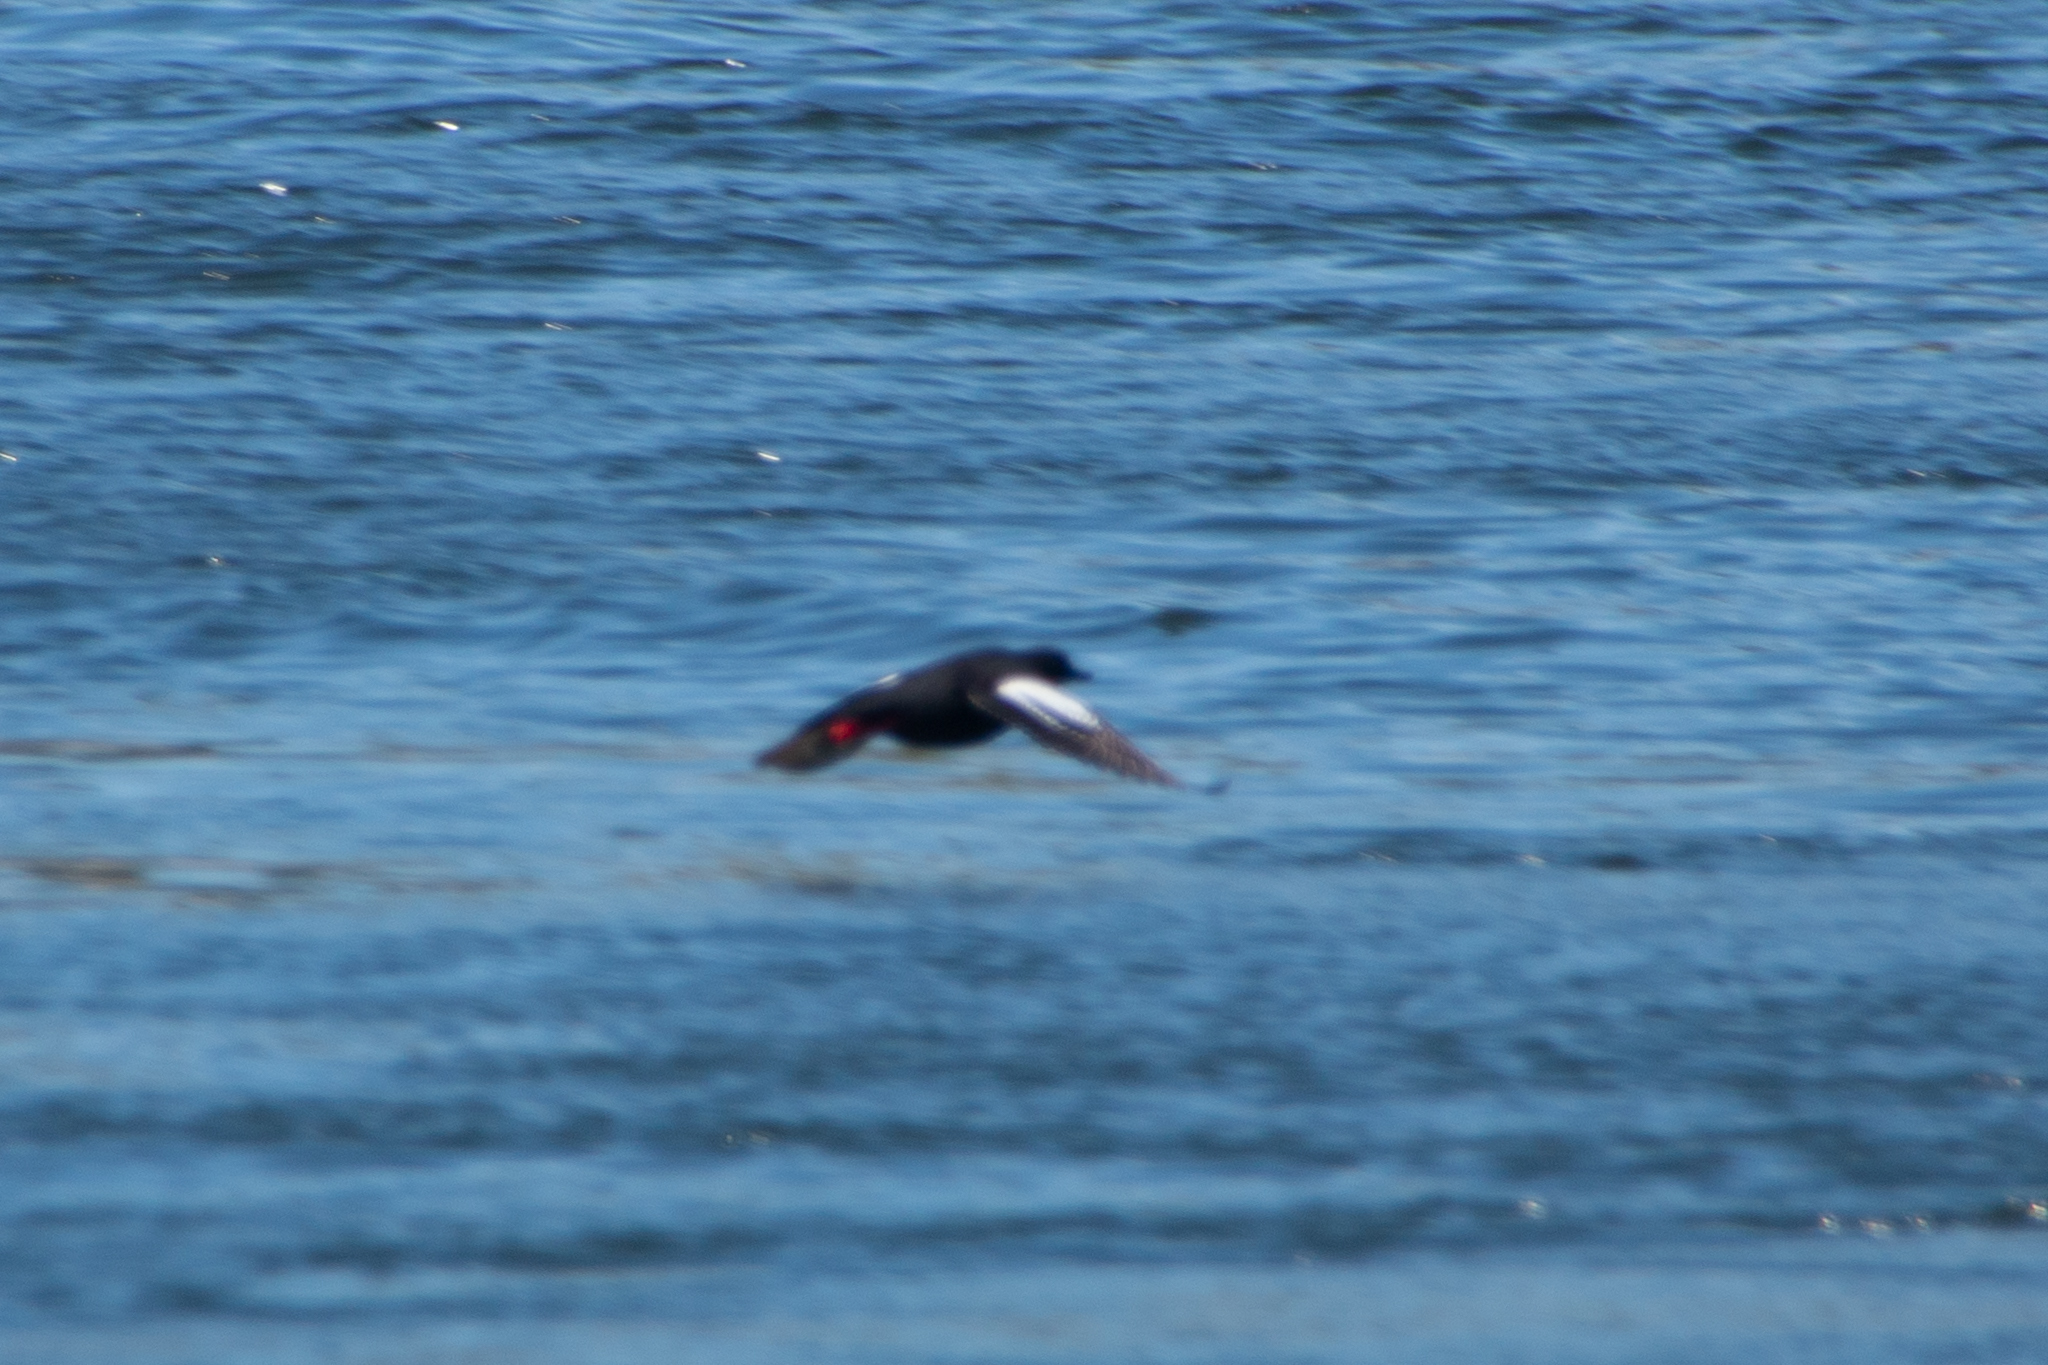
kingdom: Animalia
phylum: Chordata
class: Aves
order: Charadriiformes
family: Alcidae
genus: Cepphus
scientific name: Cepphus columba
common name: Pigeon guillemot
